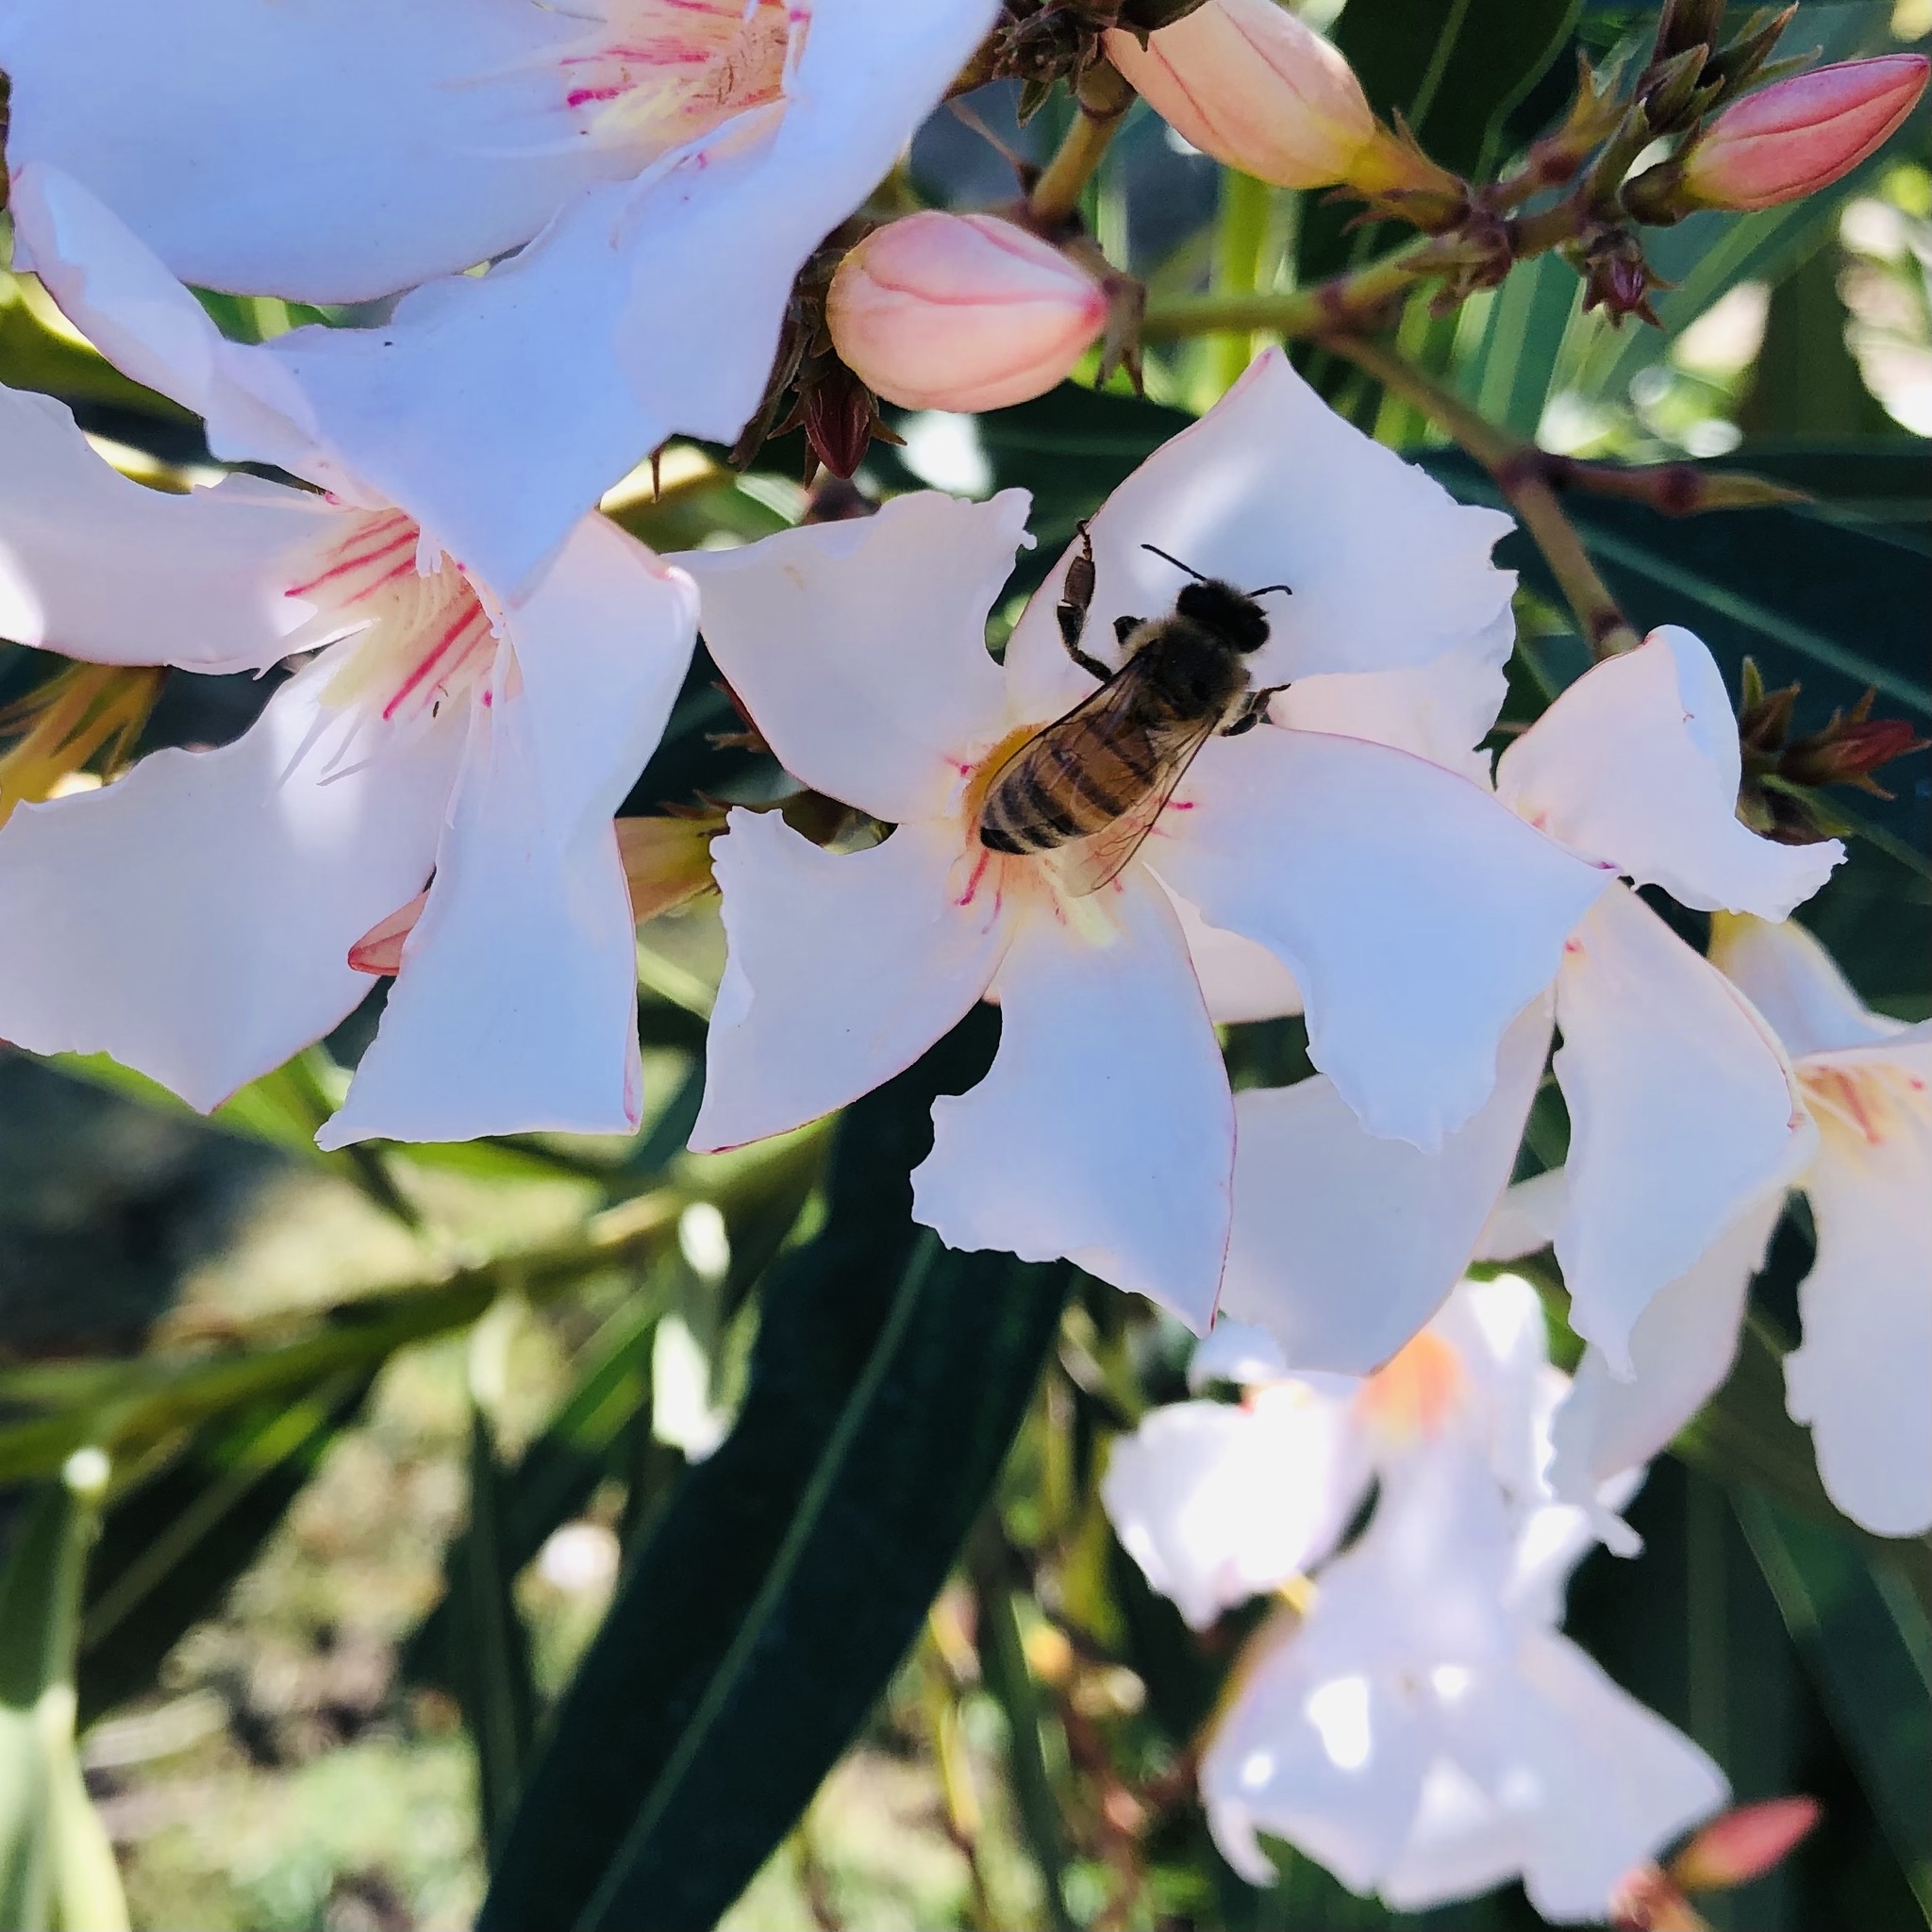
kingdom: Animalia
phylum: Arthropoda
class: Insecta
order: Hymenoptera
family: Apidae
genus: Apis
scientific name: Apis mellifera
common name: Honey bee
